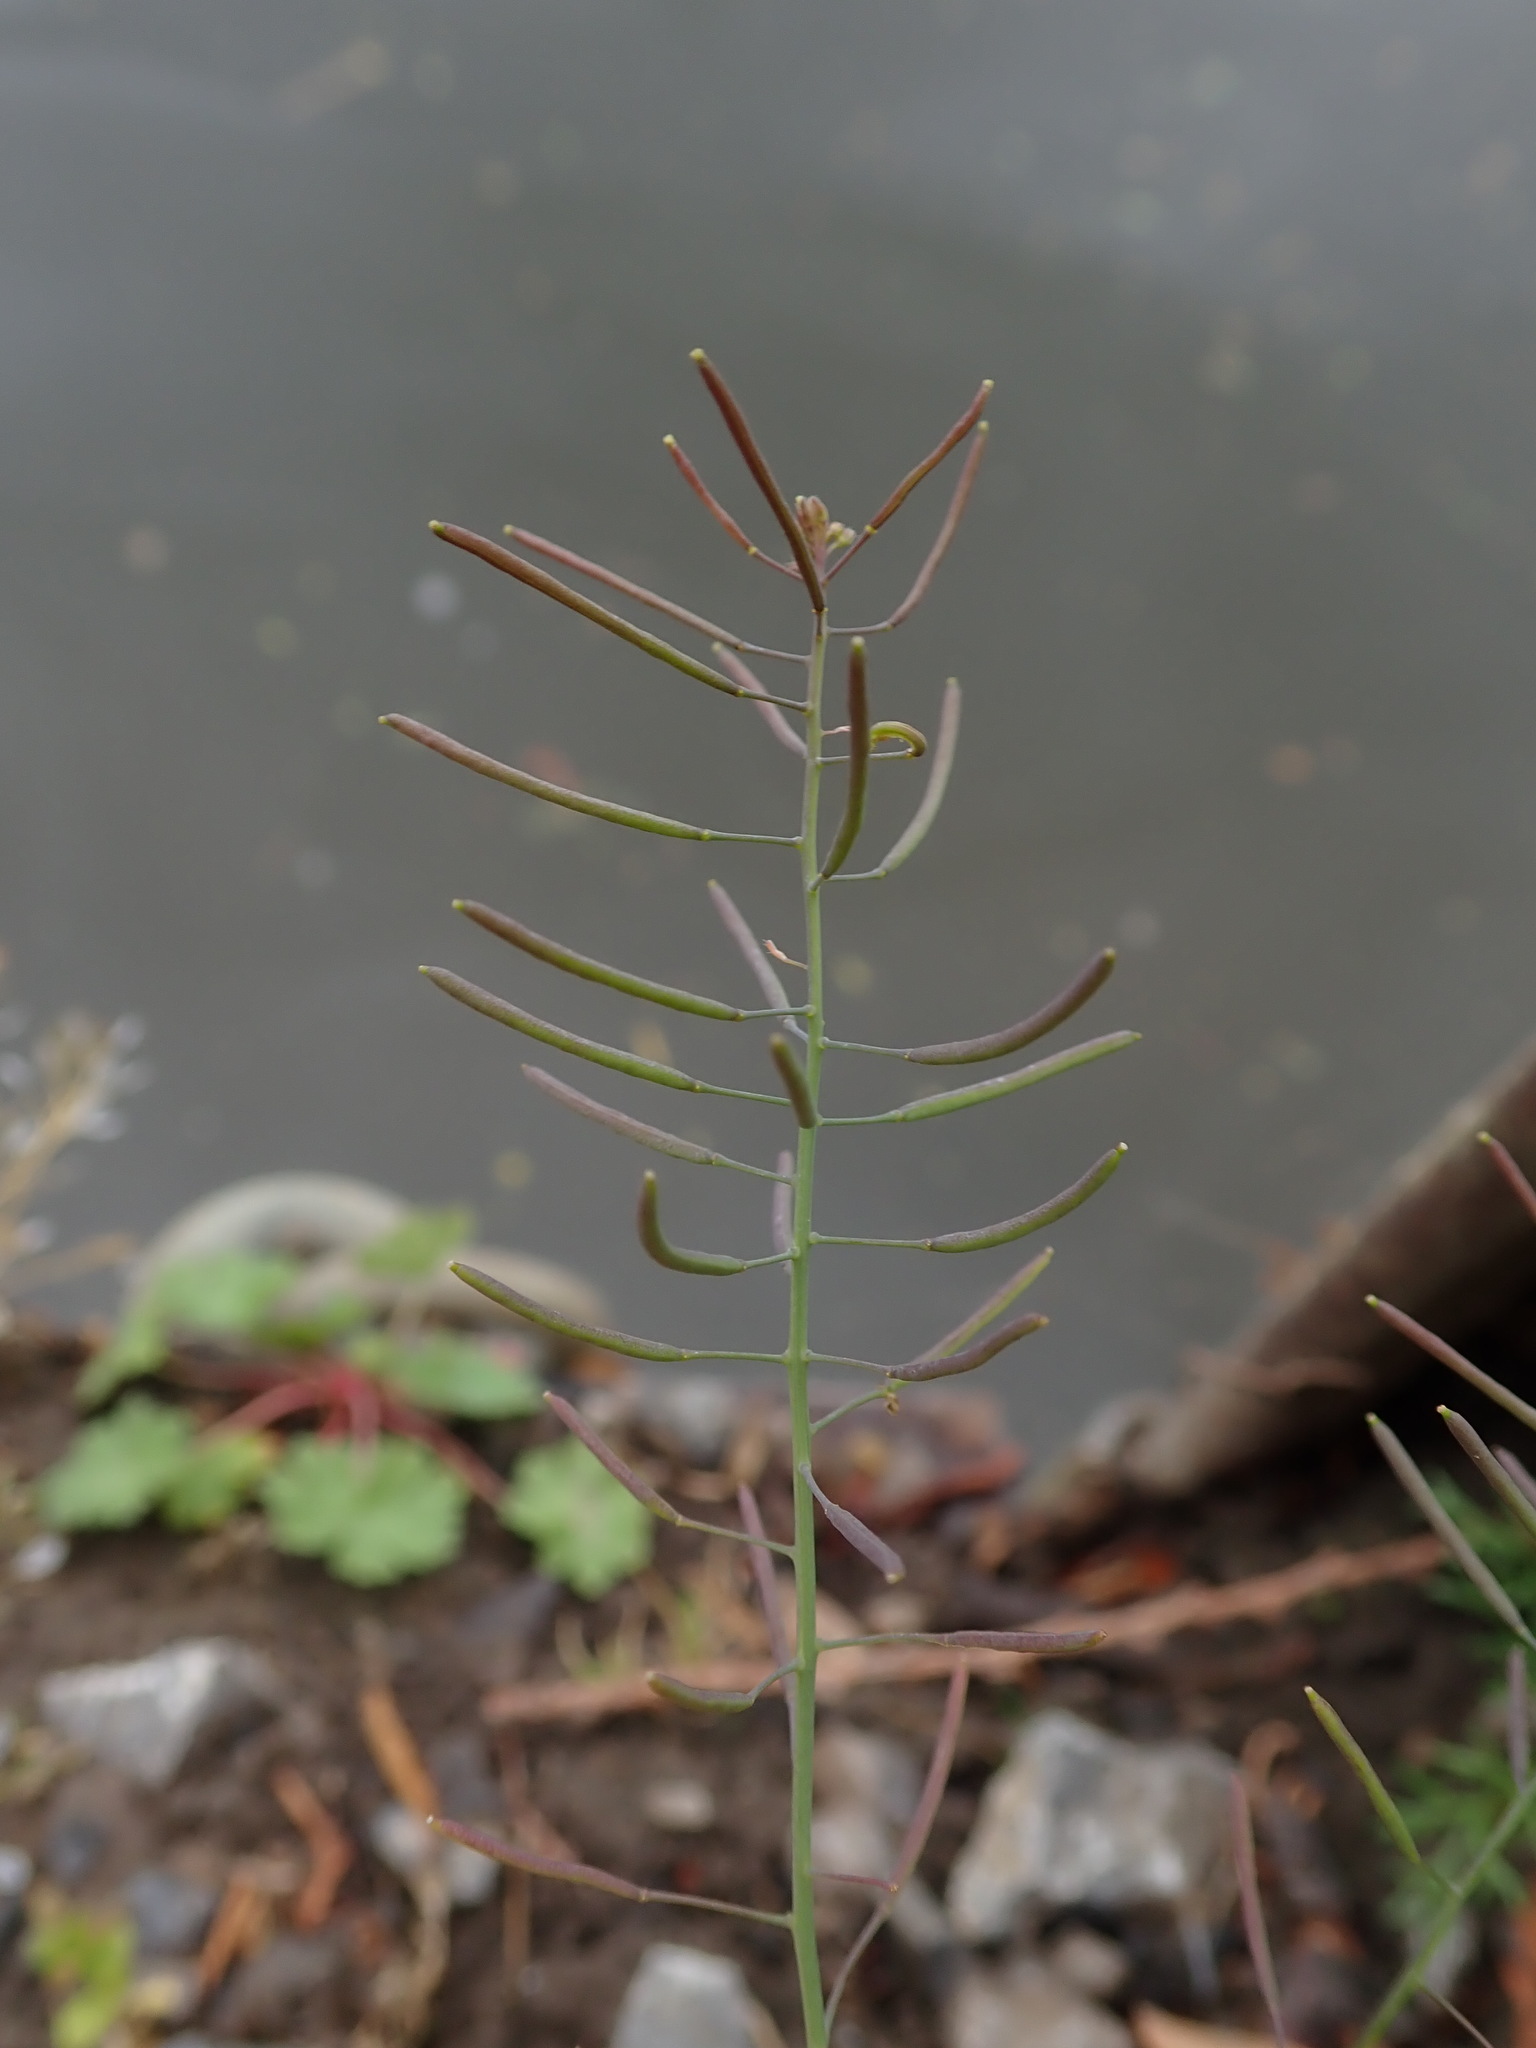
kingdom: Plantae
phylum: Tracheophyta
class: Magnoliopsida
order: Brassicales
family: Brassicaceae
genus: Arabidopsis
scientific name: Arabidopsis thaliana
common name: Thale cress
